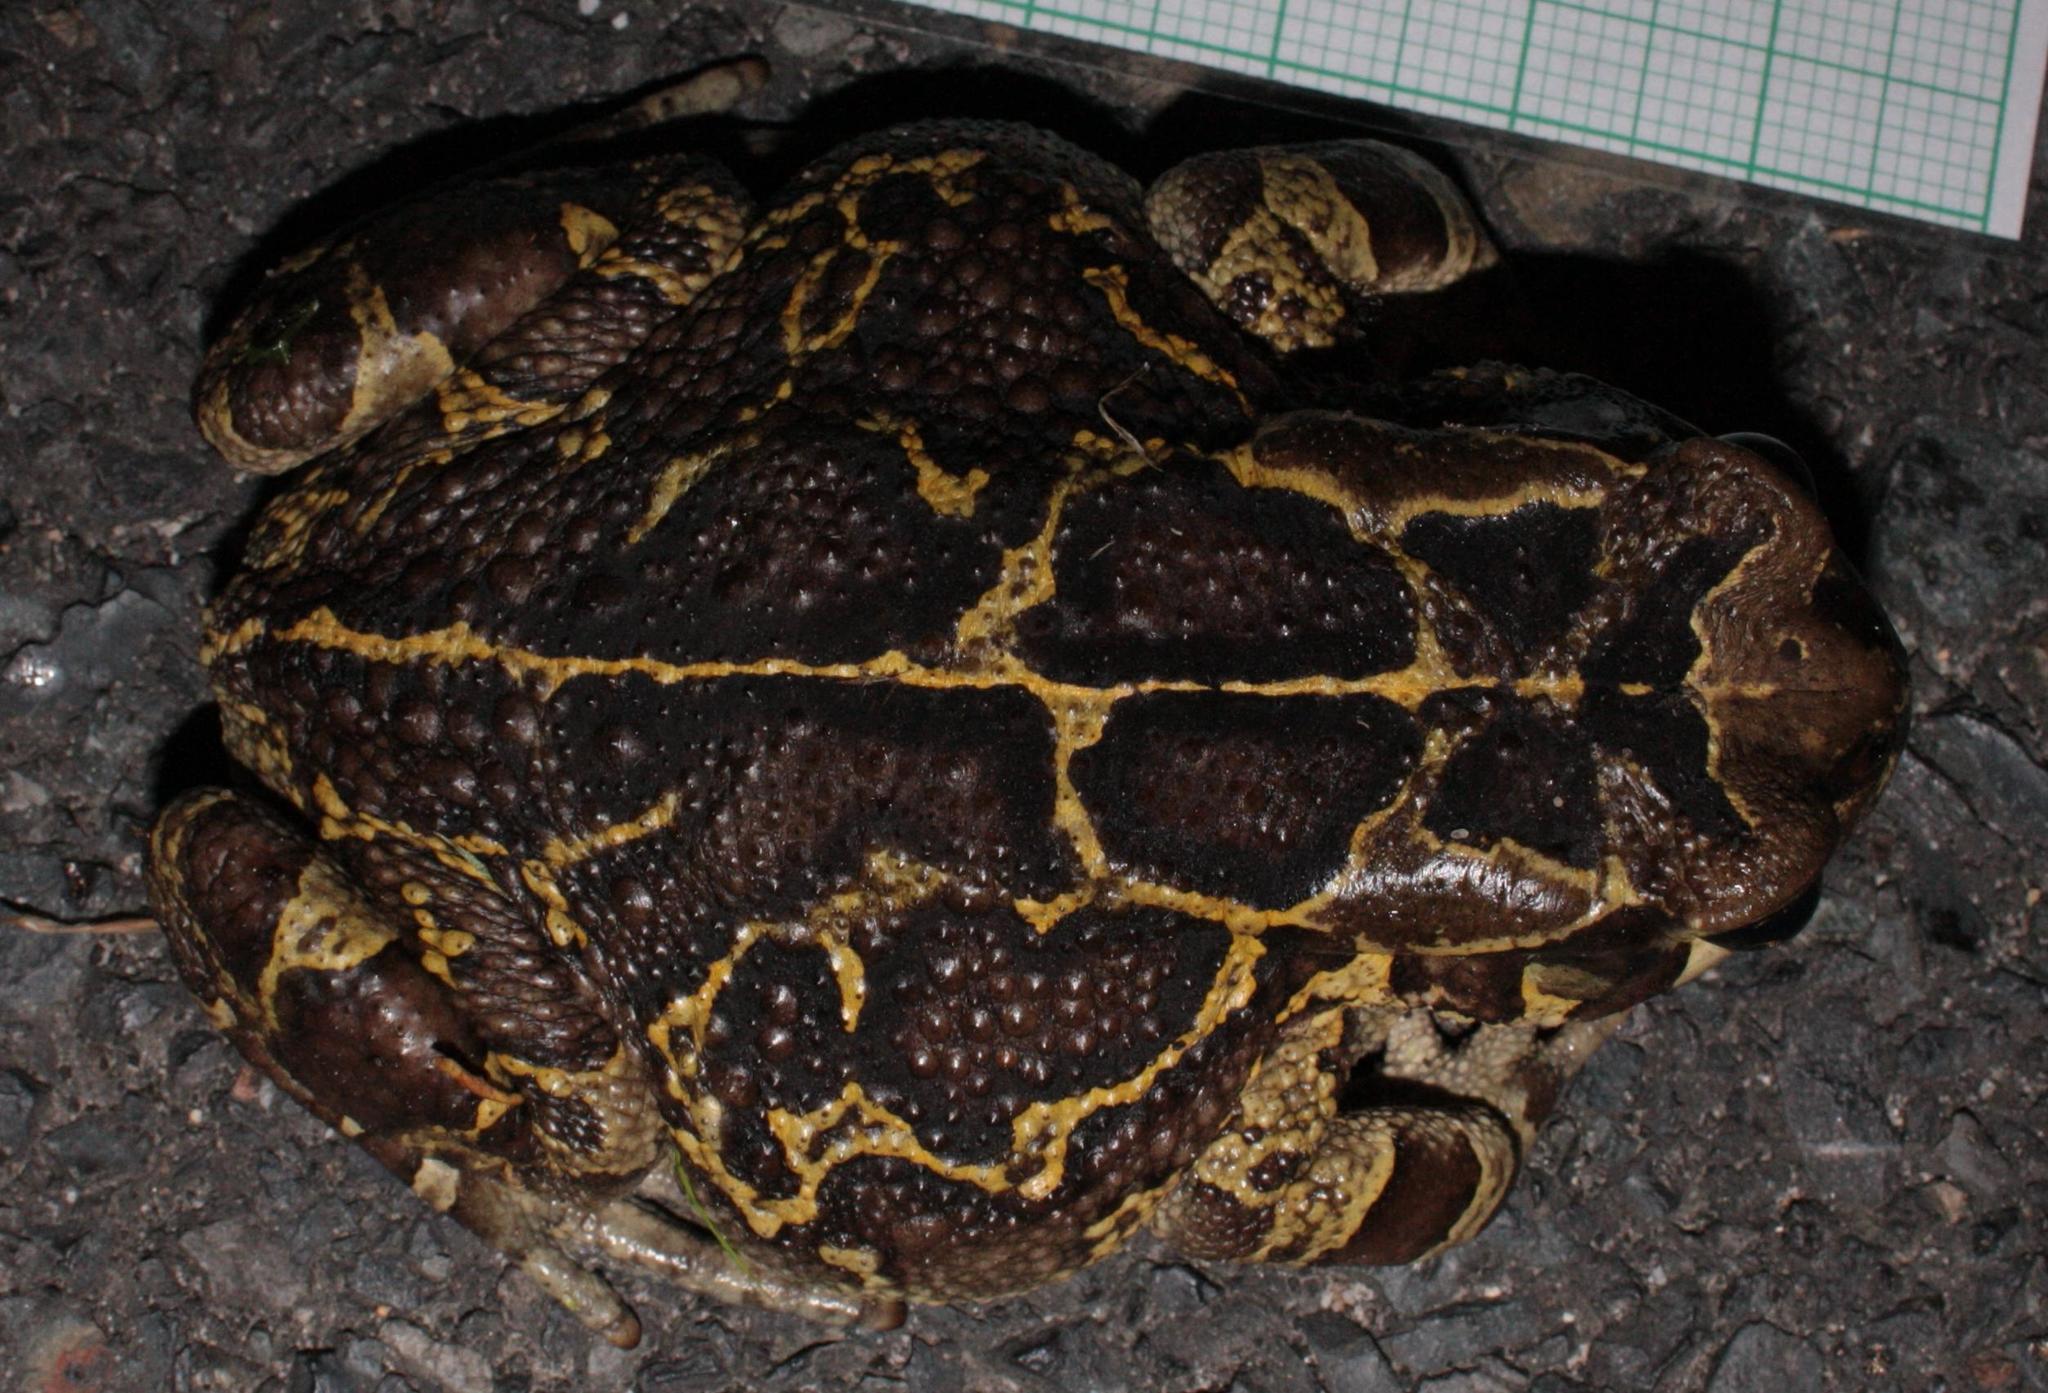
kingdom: Animalia
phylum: Chordata
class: Amphibia
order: Anura
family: Bufonidae
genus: Sclerophrys
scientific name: Sclerophrys pantherina
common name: Panther toad
